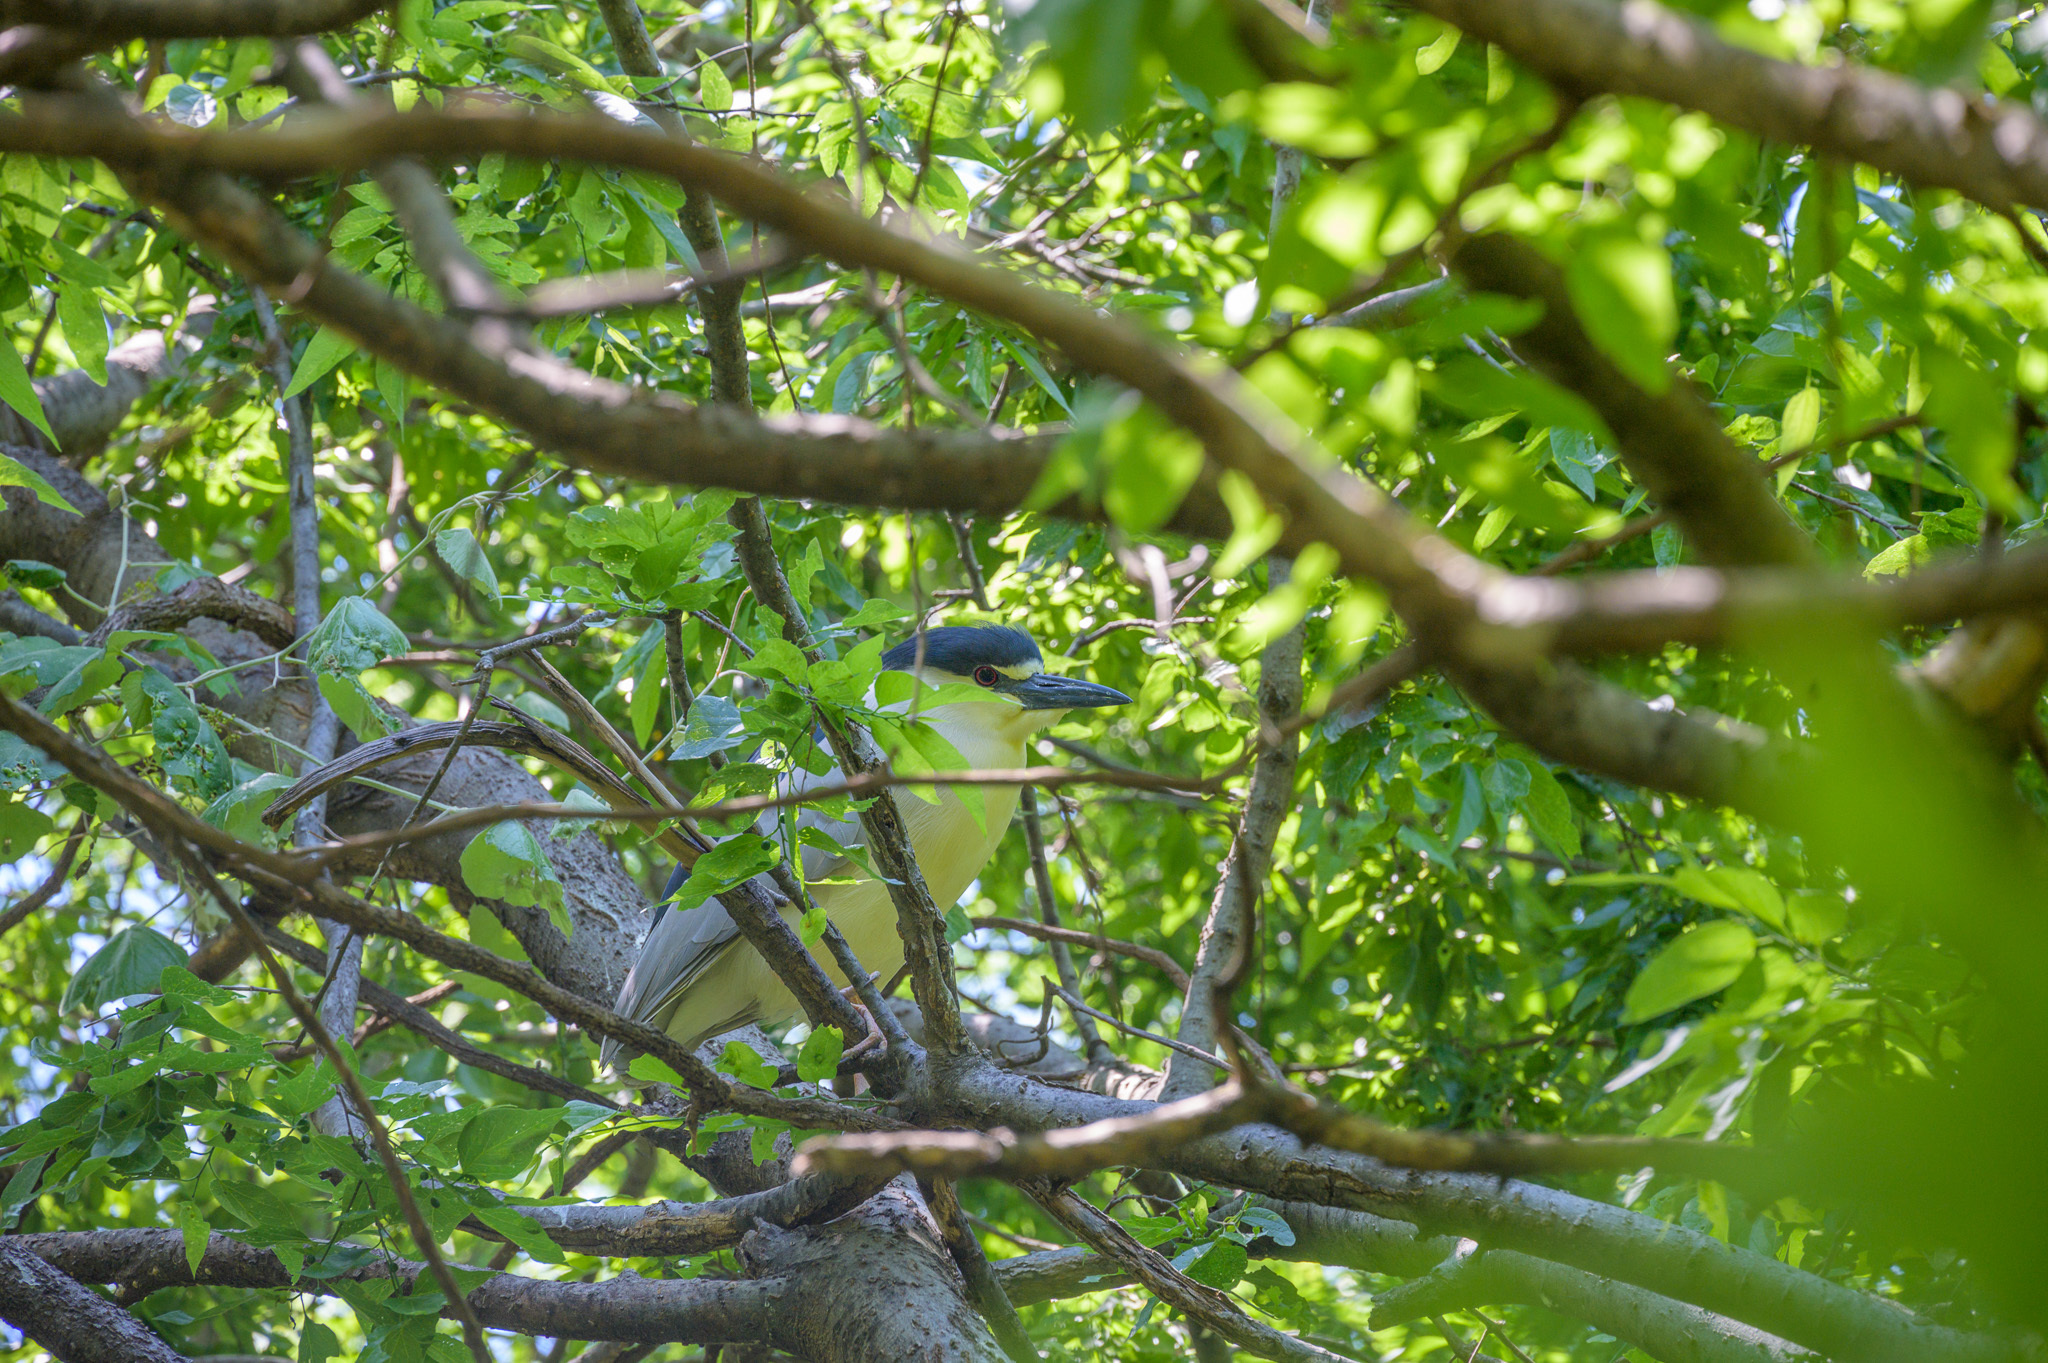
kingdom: Animalia
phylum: Chordata
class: Aves
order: Pelecaniformes
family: Ardeidae
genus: Nycticorax
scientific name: Nycticorax nycticorax
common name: Black-crowned night heron
